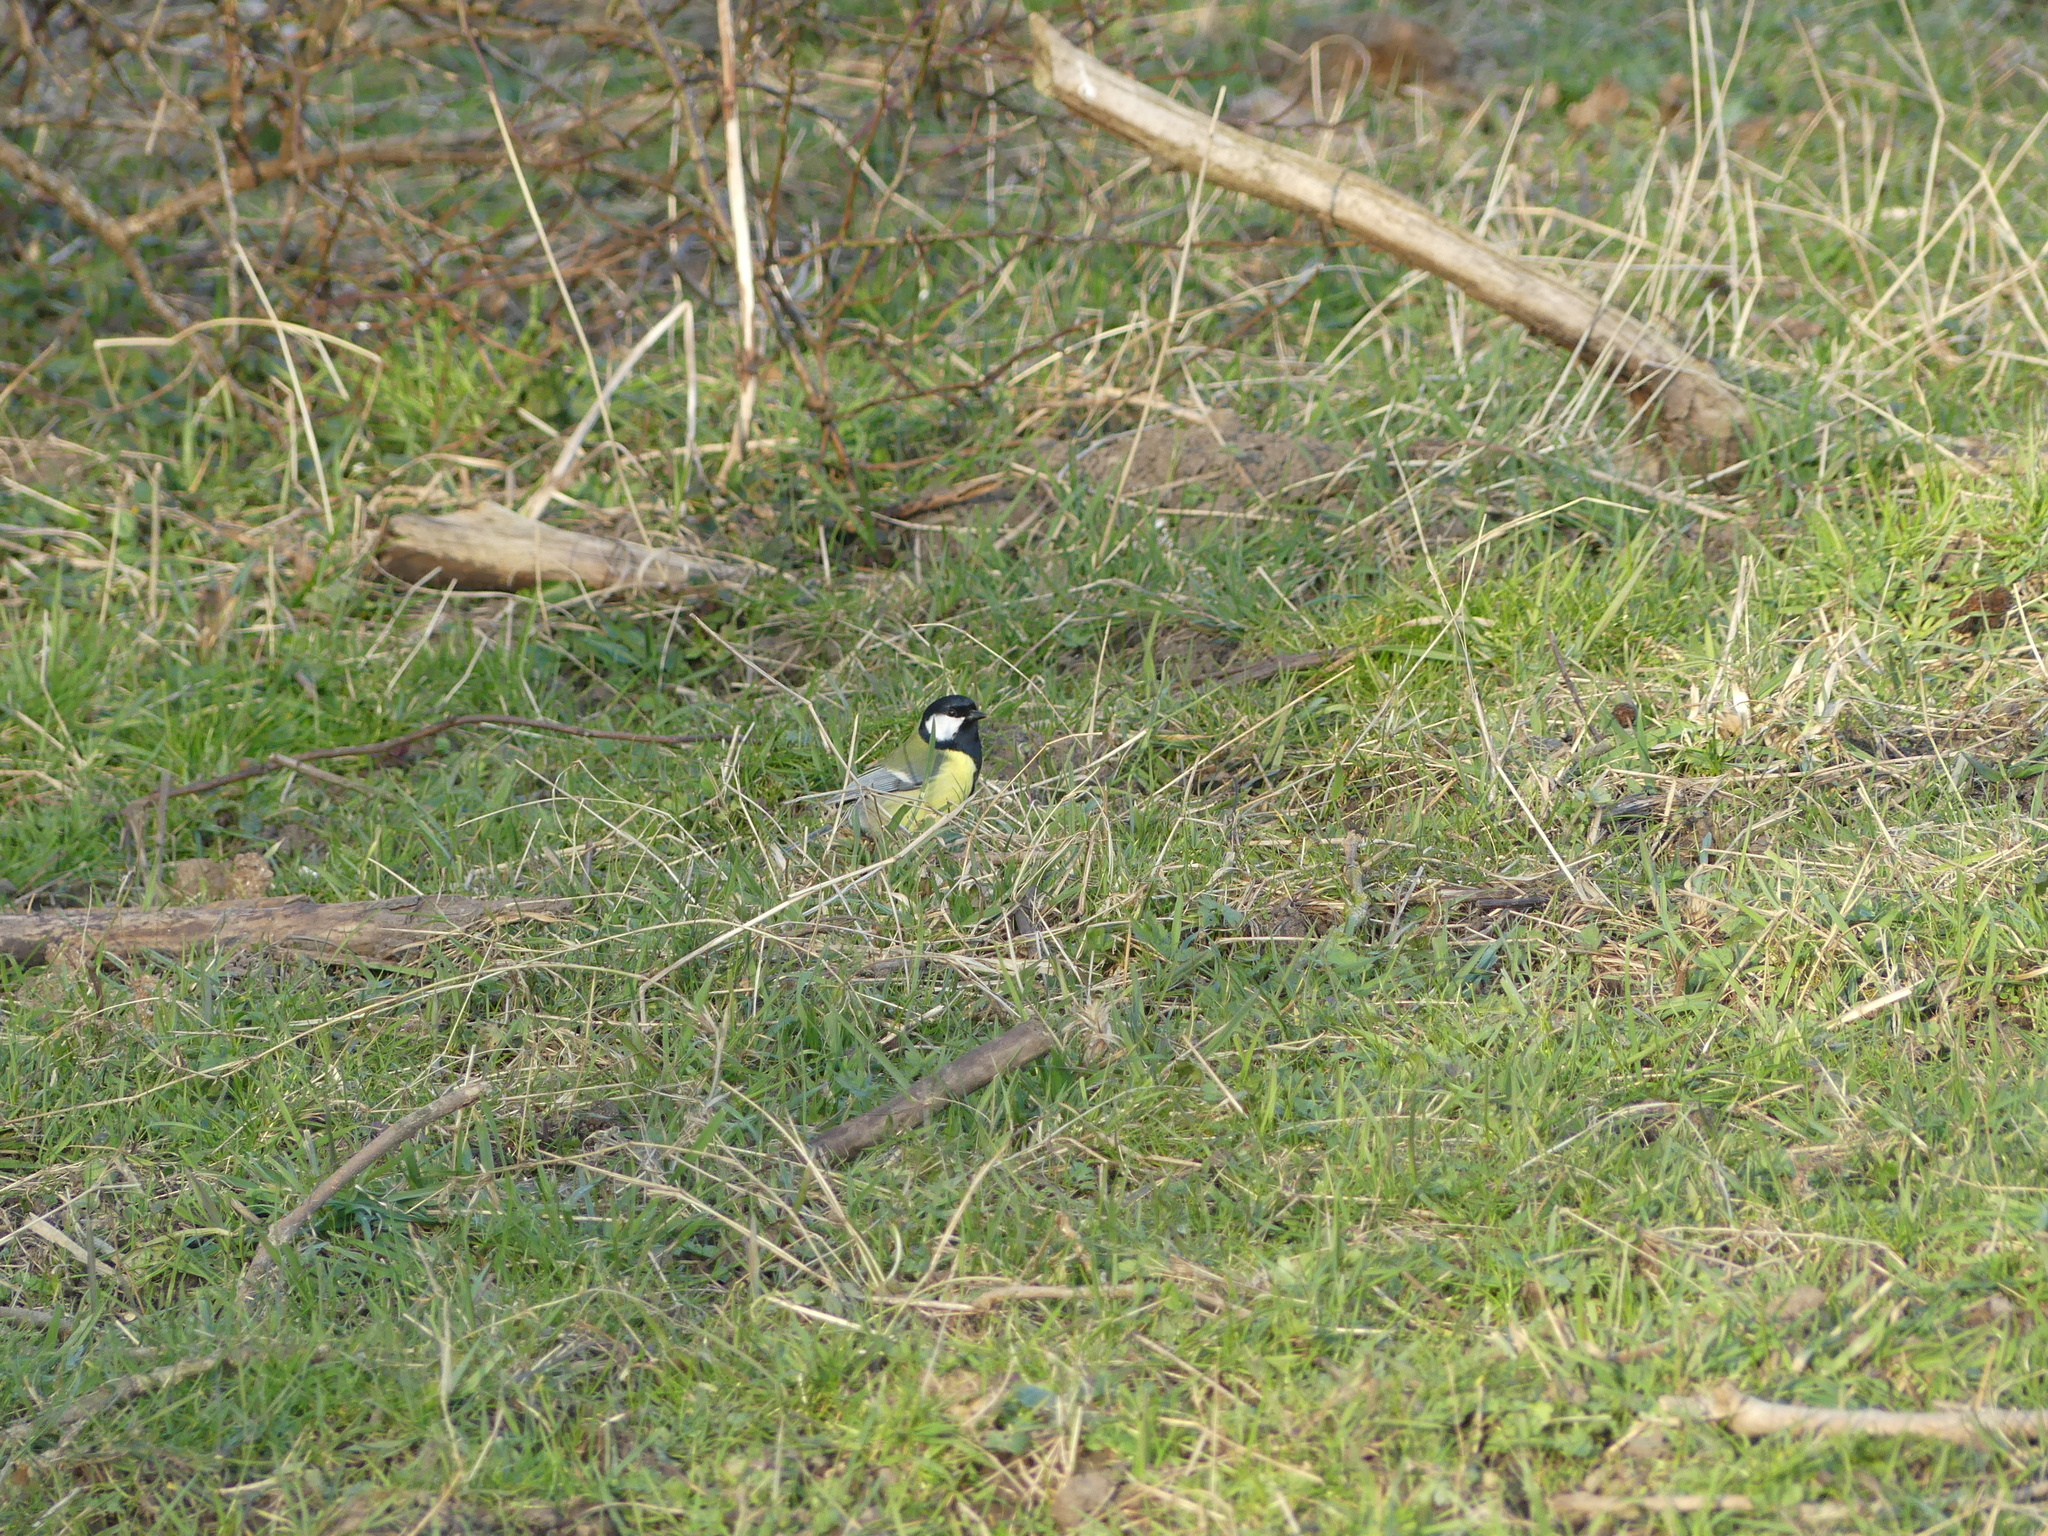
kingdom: Animalia
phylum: Chordata
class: Aves
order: Passeriformes
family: Paridae
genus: Parus
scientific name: Parus major
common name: Great tit
